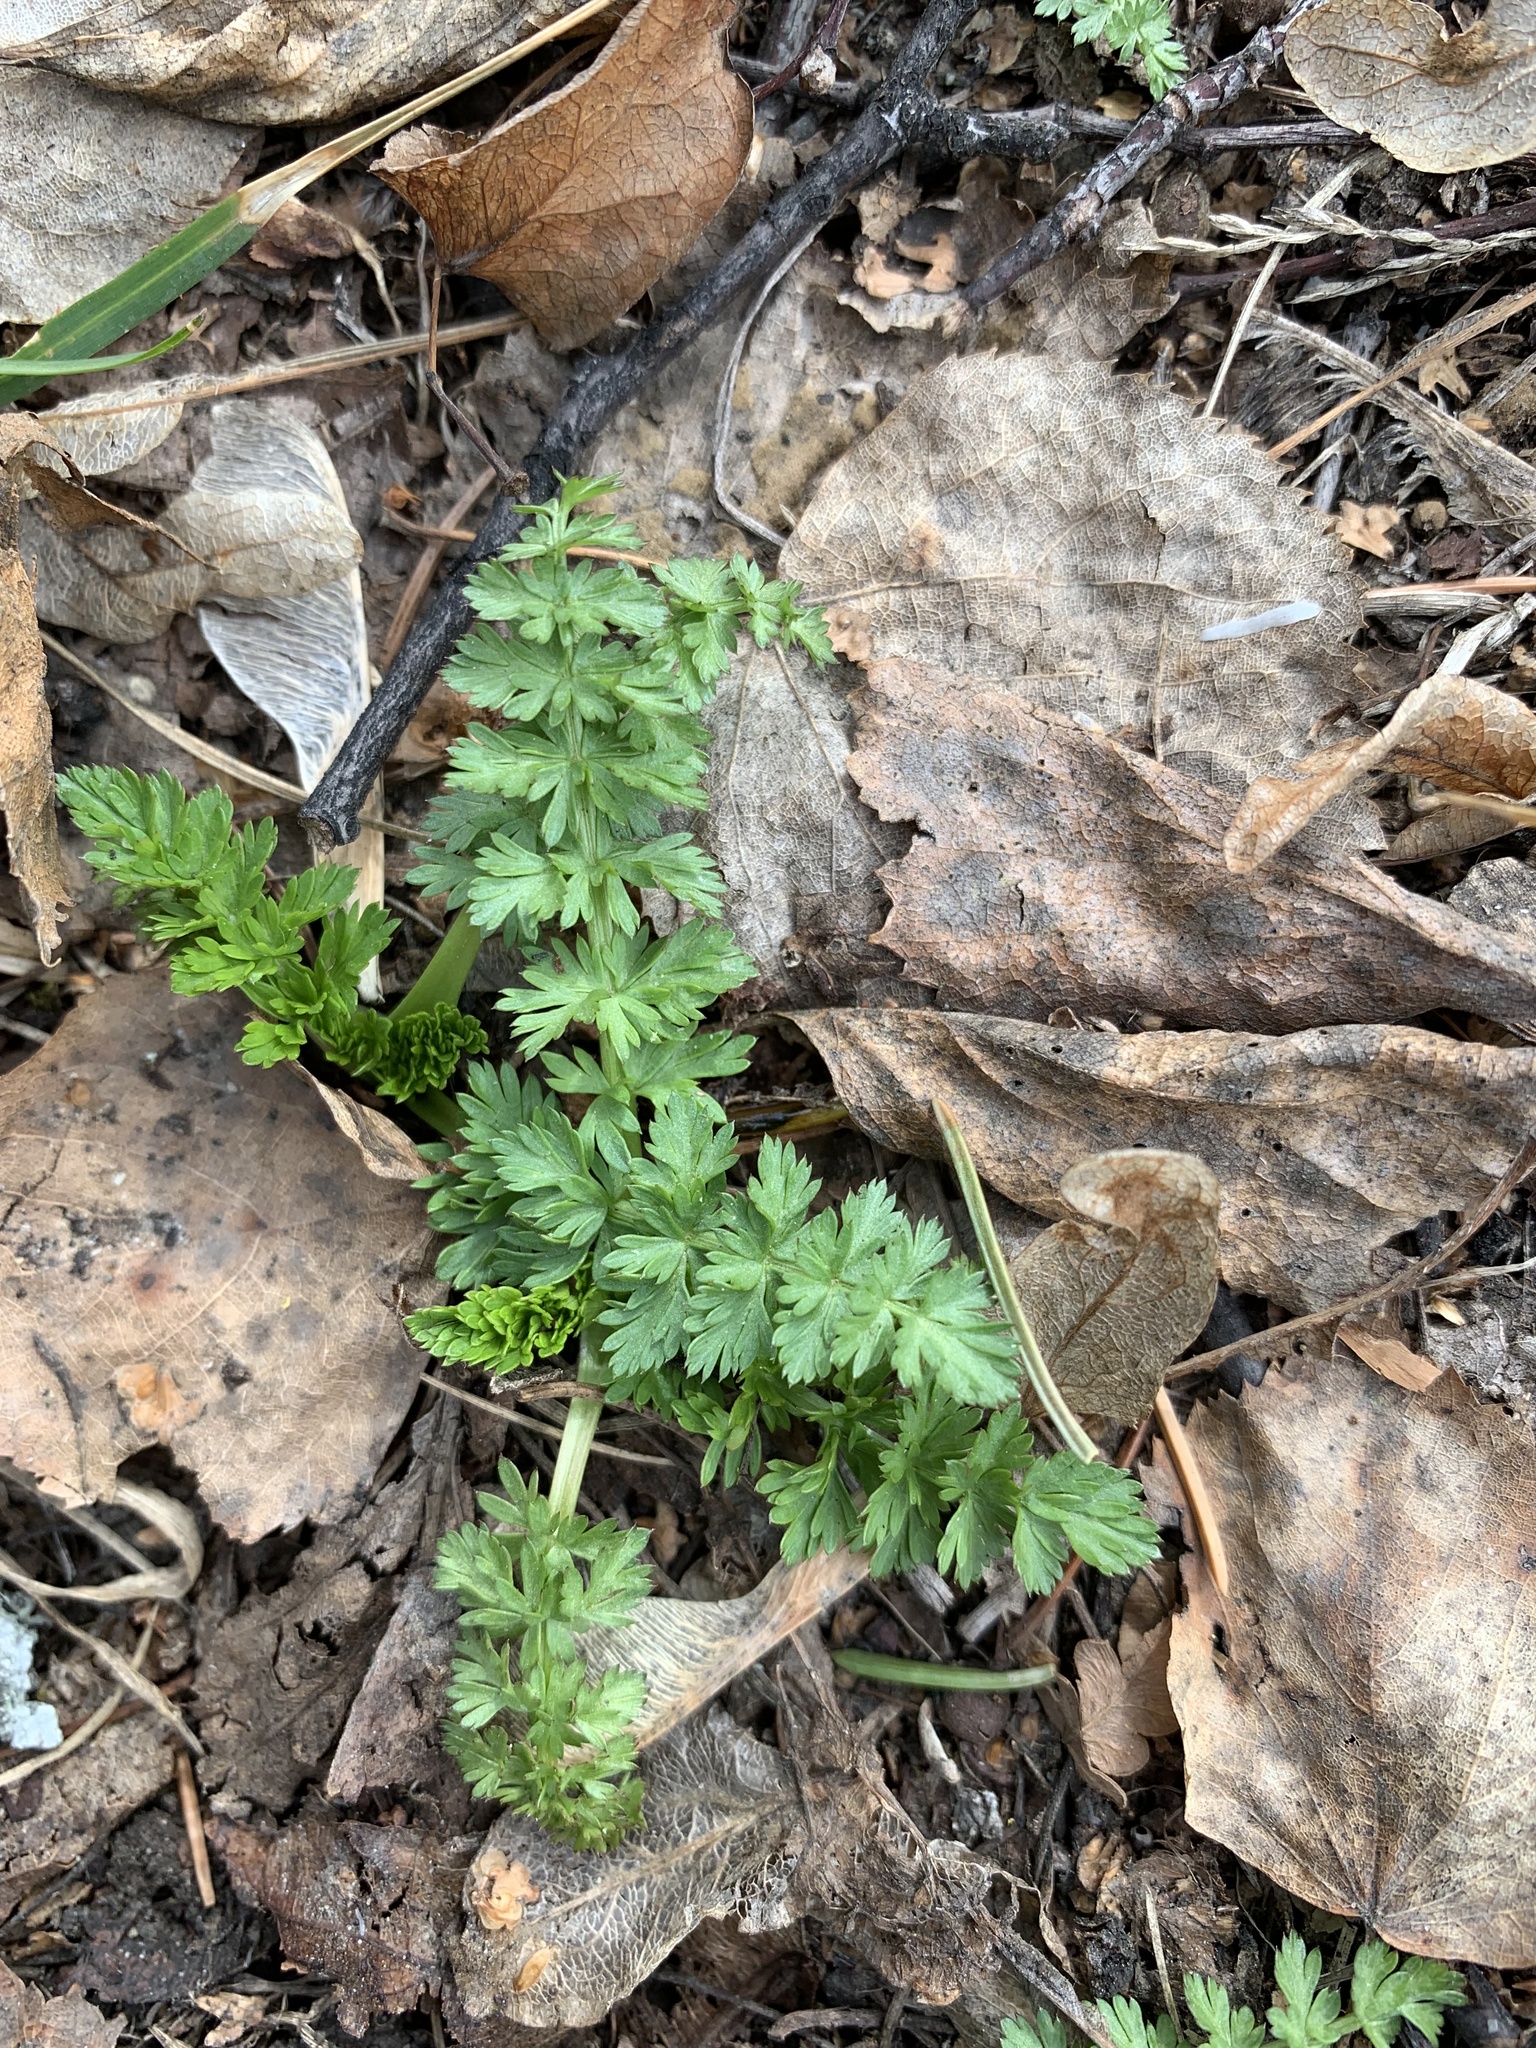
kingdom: Plantae
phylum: Tracheophyta
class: Magnoliopsida
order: Apiales
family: Apiaceae
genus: Carum
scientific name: Carum carvi
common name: Caraway
